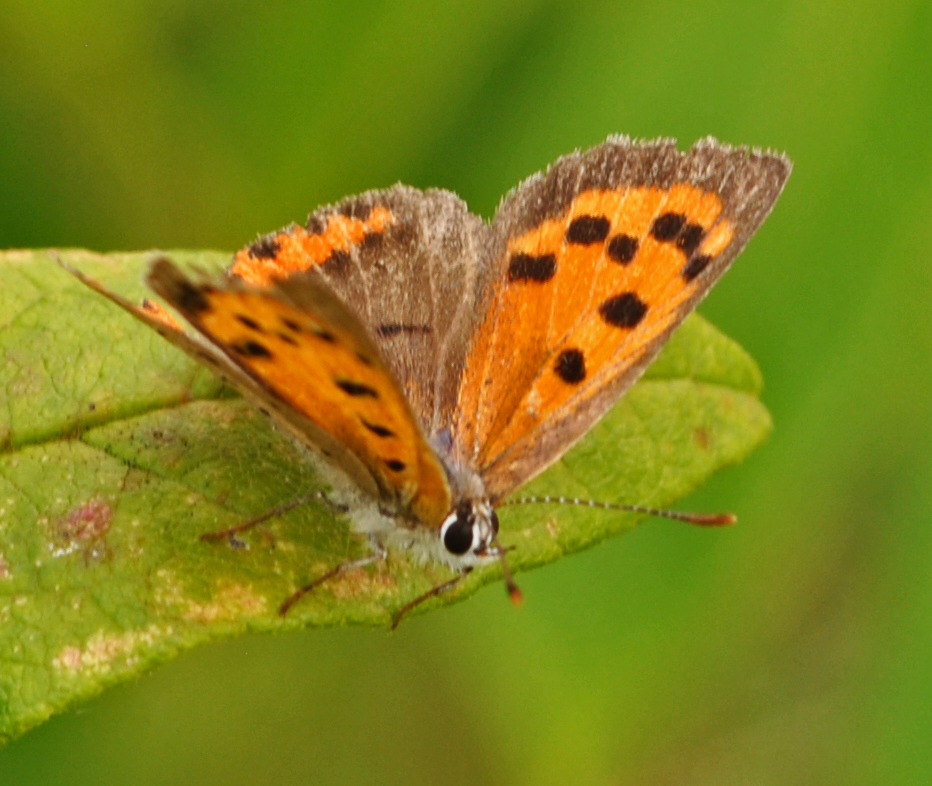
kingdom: Animalia
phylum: Arthropoda
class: Insecta
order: Lepidoptera
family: Lycaenidae
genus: Lycaena
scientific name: Lycaena hypophlaeas
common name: American copper
